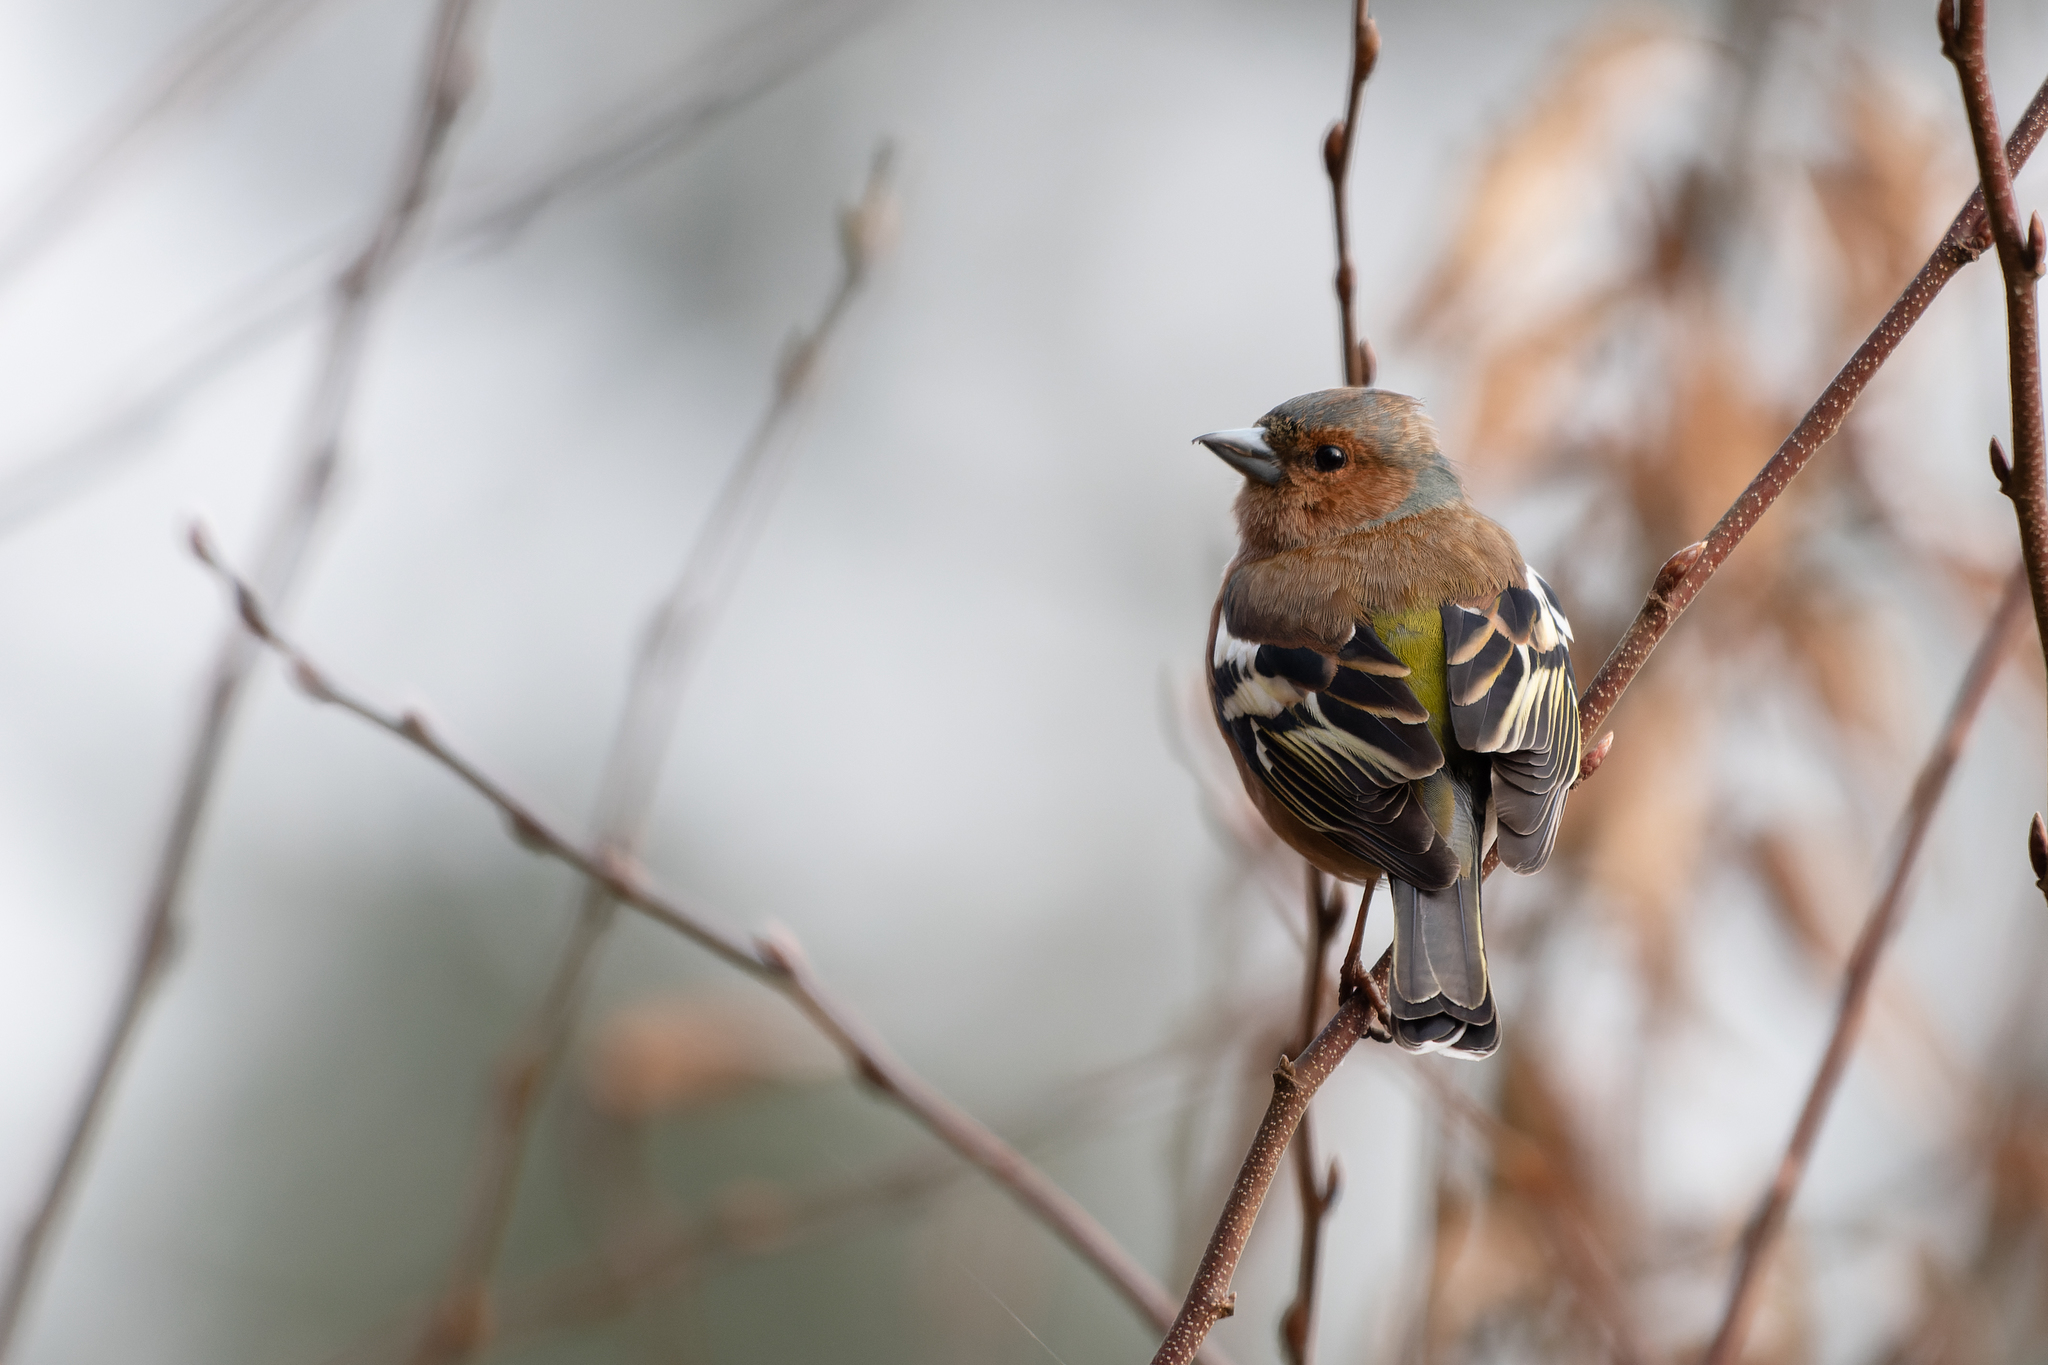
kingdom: Animalia
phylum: Chordata
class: Aves
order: Passeriformes
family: Fringillidae
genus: Fringilla
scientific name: Fringilla coelebs
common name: Common chaffinch
